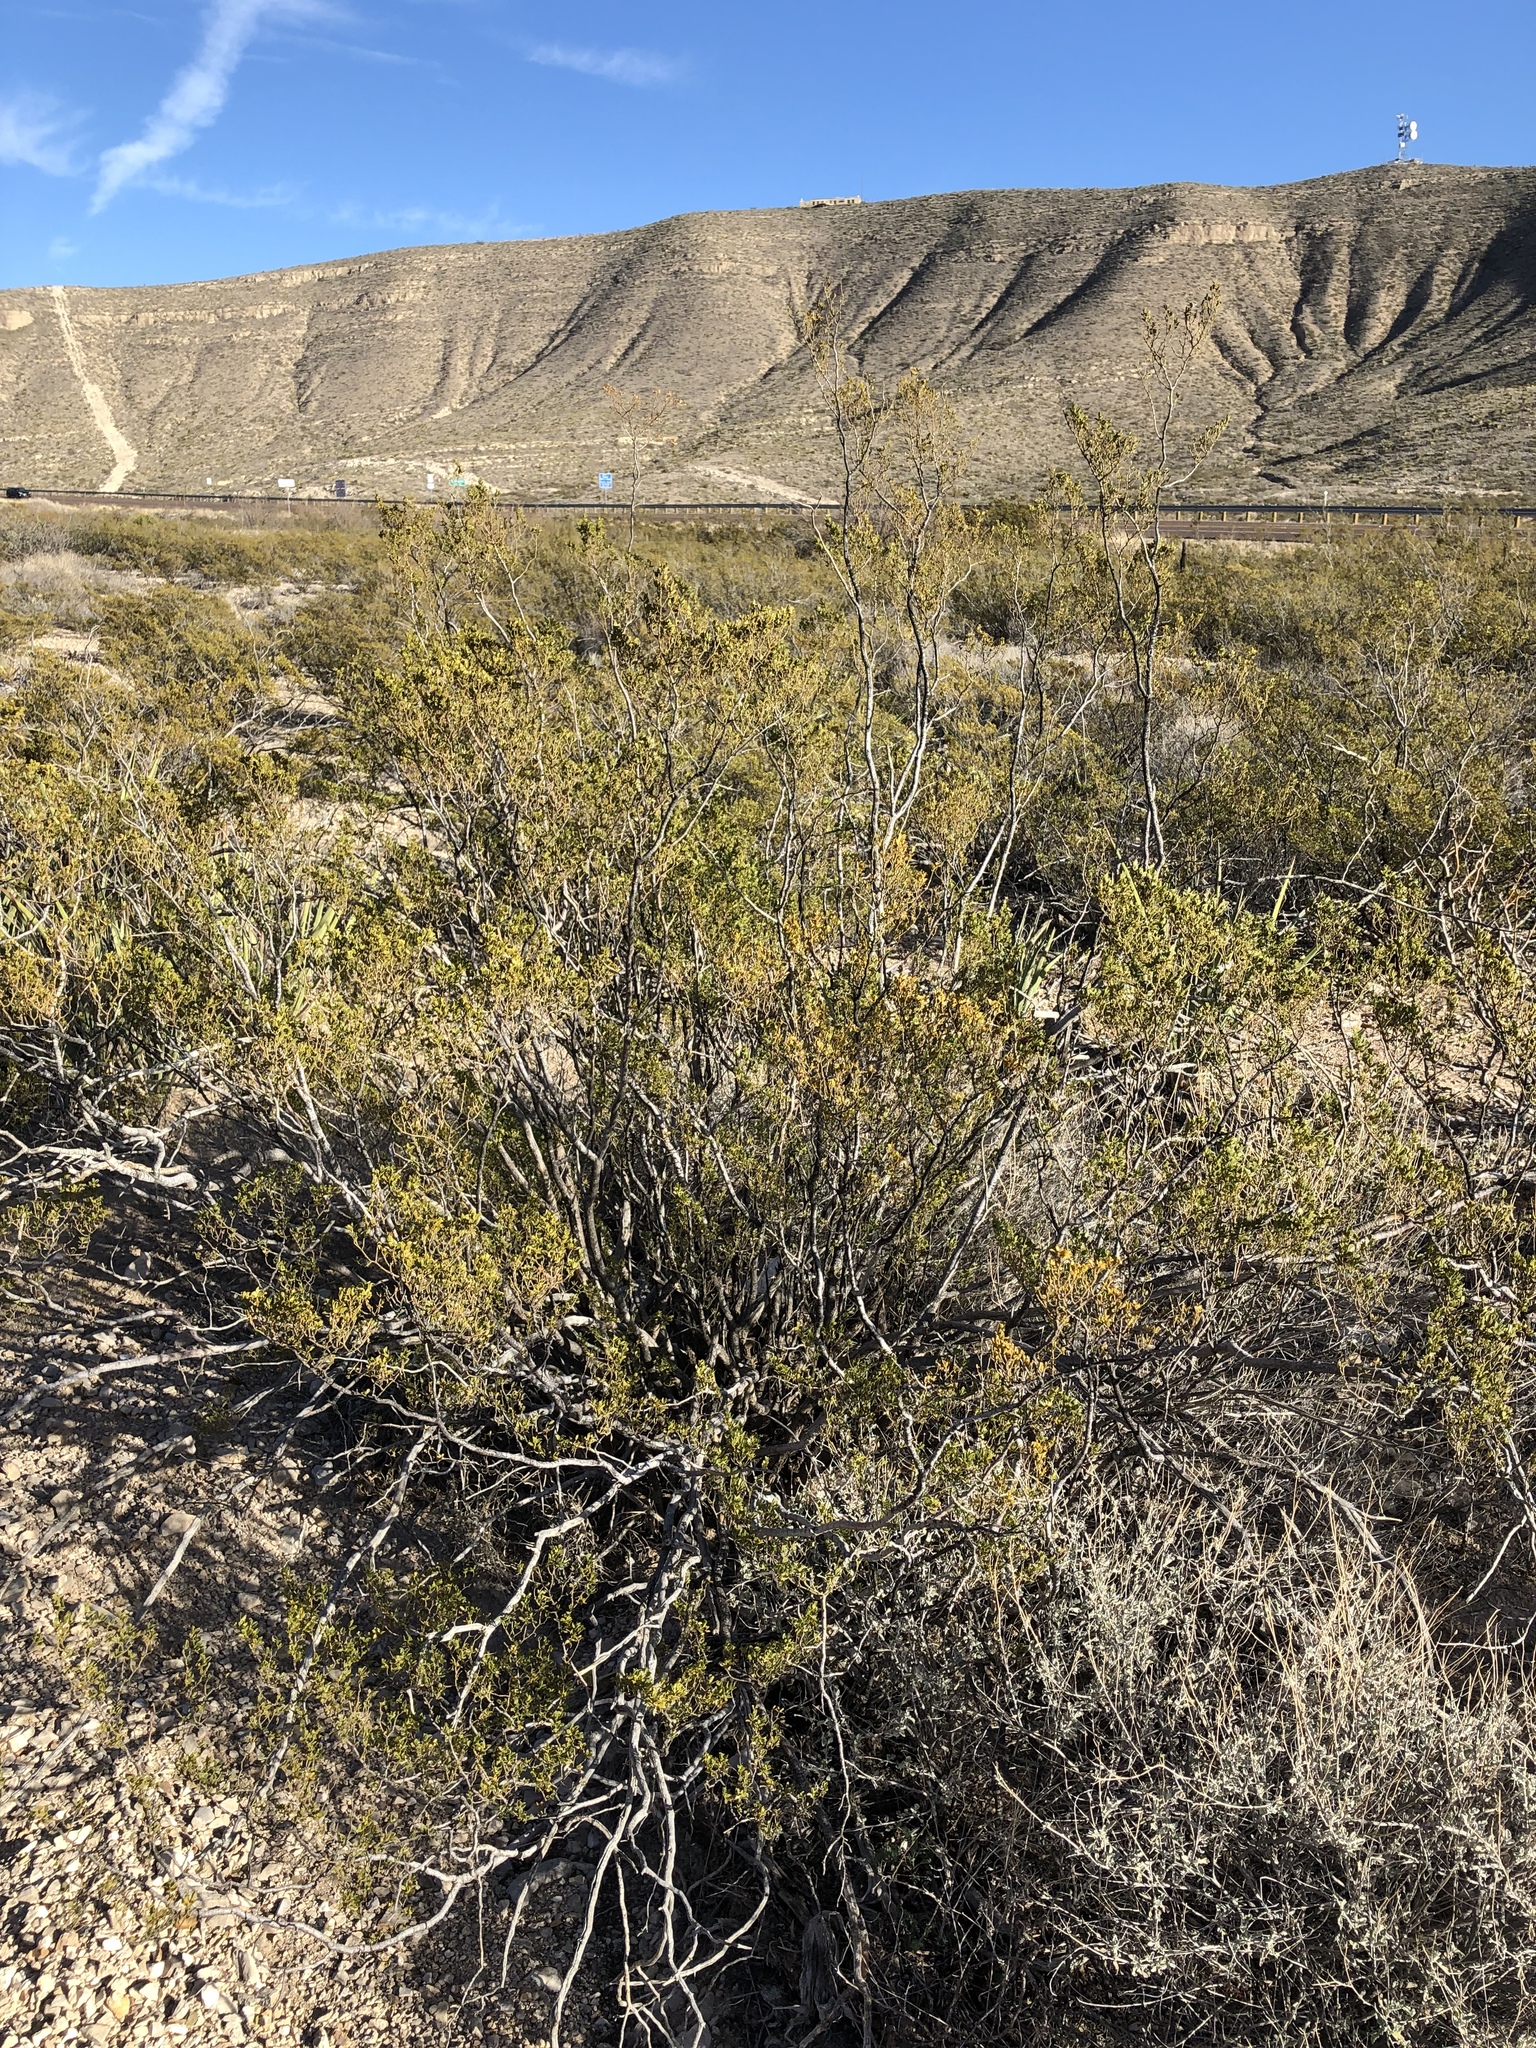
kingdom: Plantae
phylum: Tracheophyta
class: Magnoliopsida
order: Zygophyllales
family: Zygophyllaceae
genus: Larrea
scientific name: Larrea tridentata
